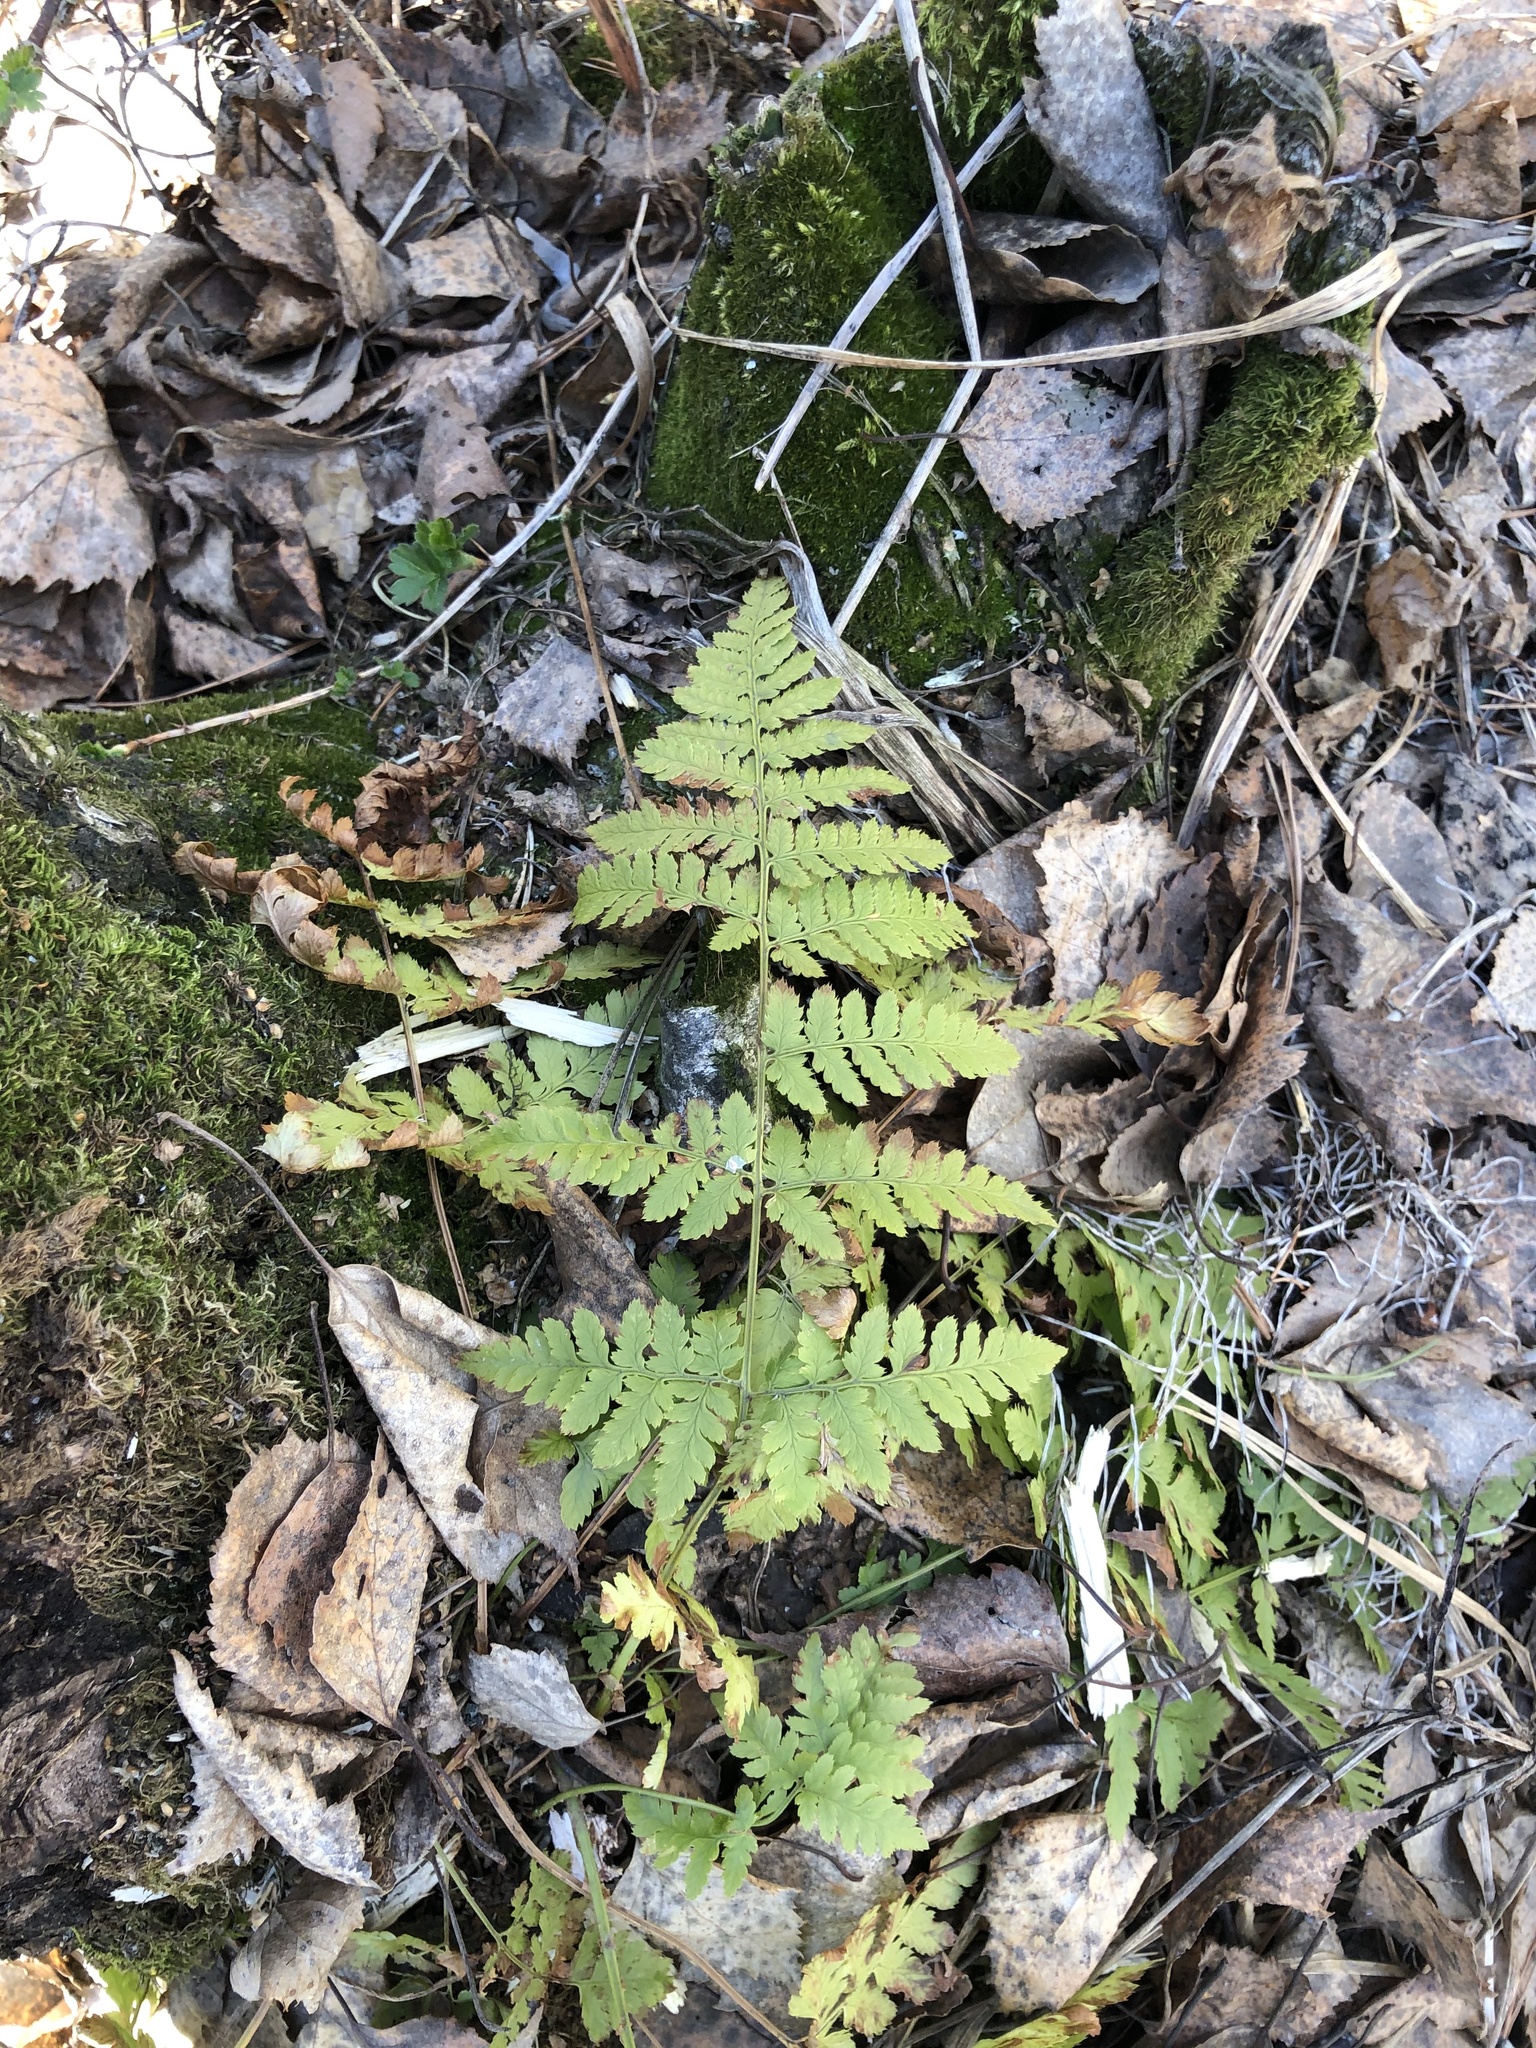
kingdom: Plantae
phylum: Tracheophyta
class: Polypodiopsida
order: Polypodiales
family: Dryopteridaceae
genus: Dryopteris
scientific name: Dryopteris carthusiana
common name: Narrow buckler-fern
